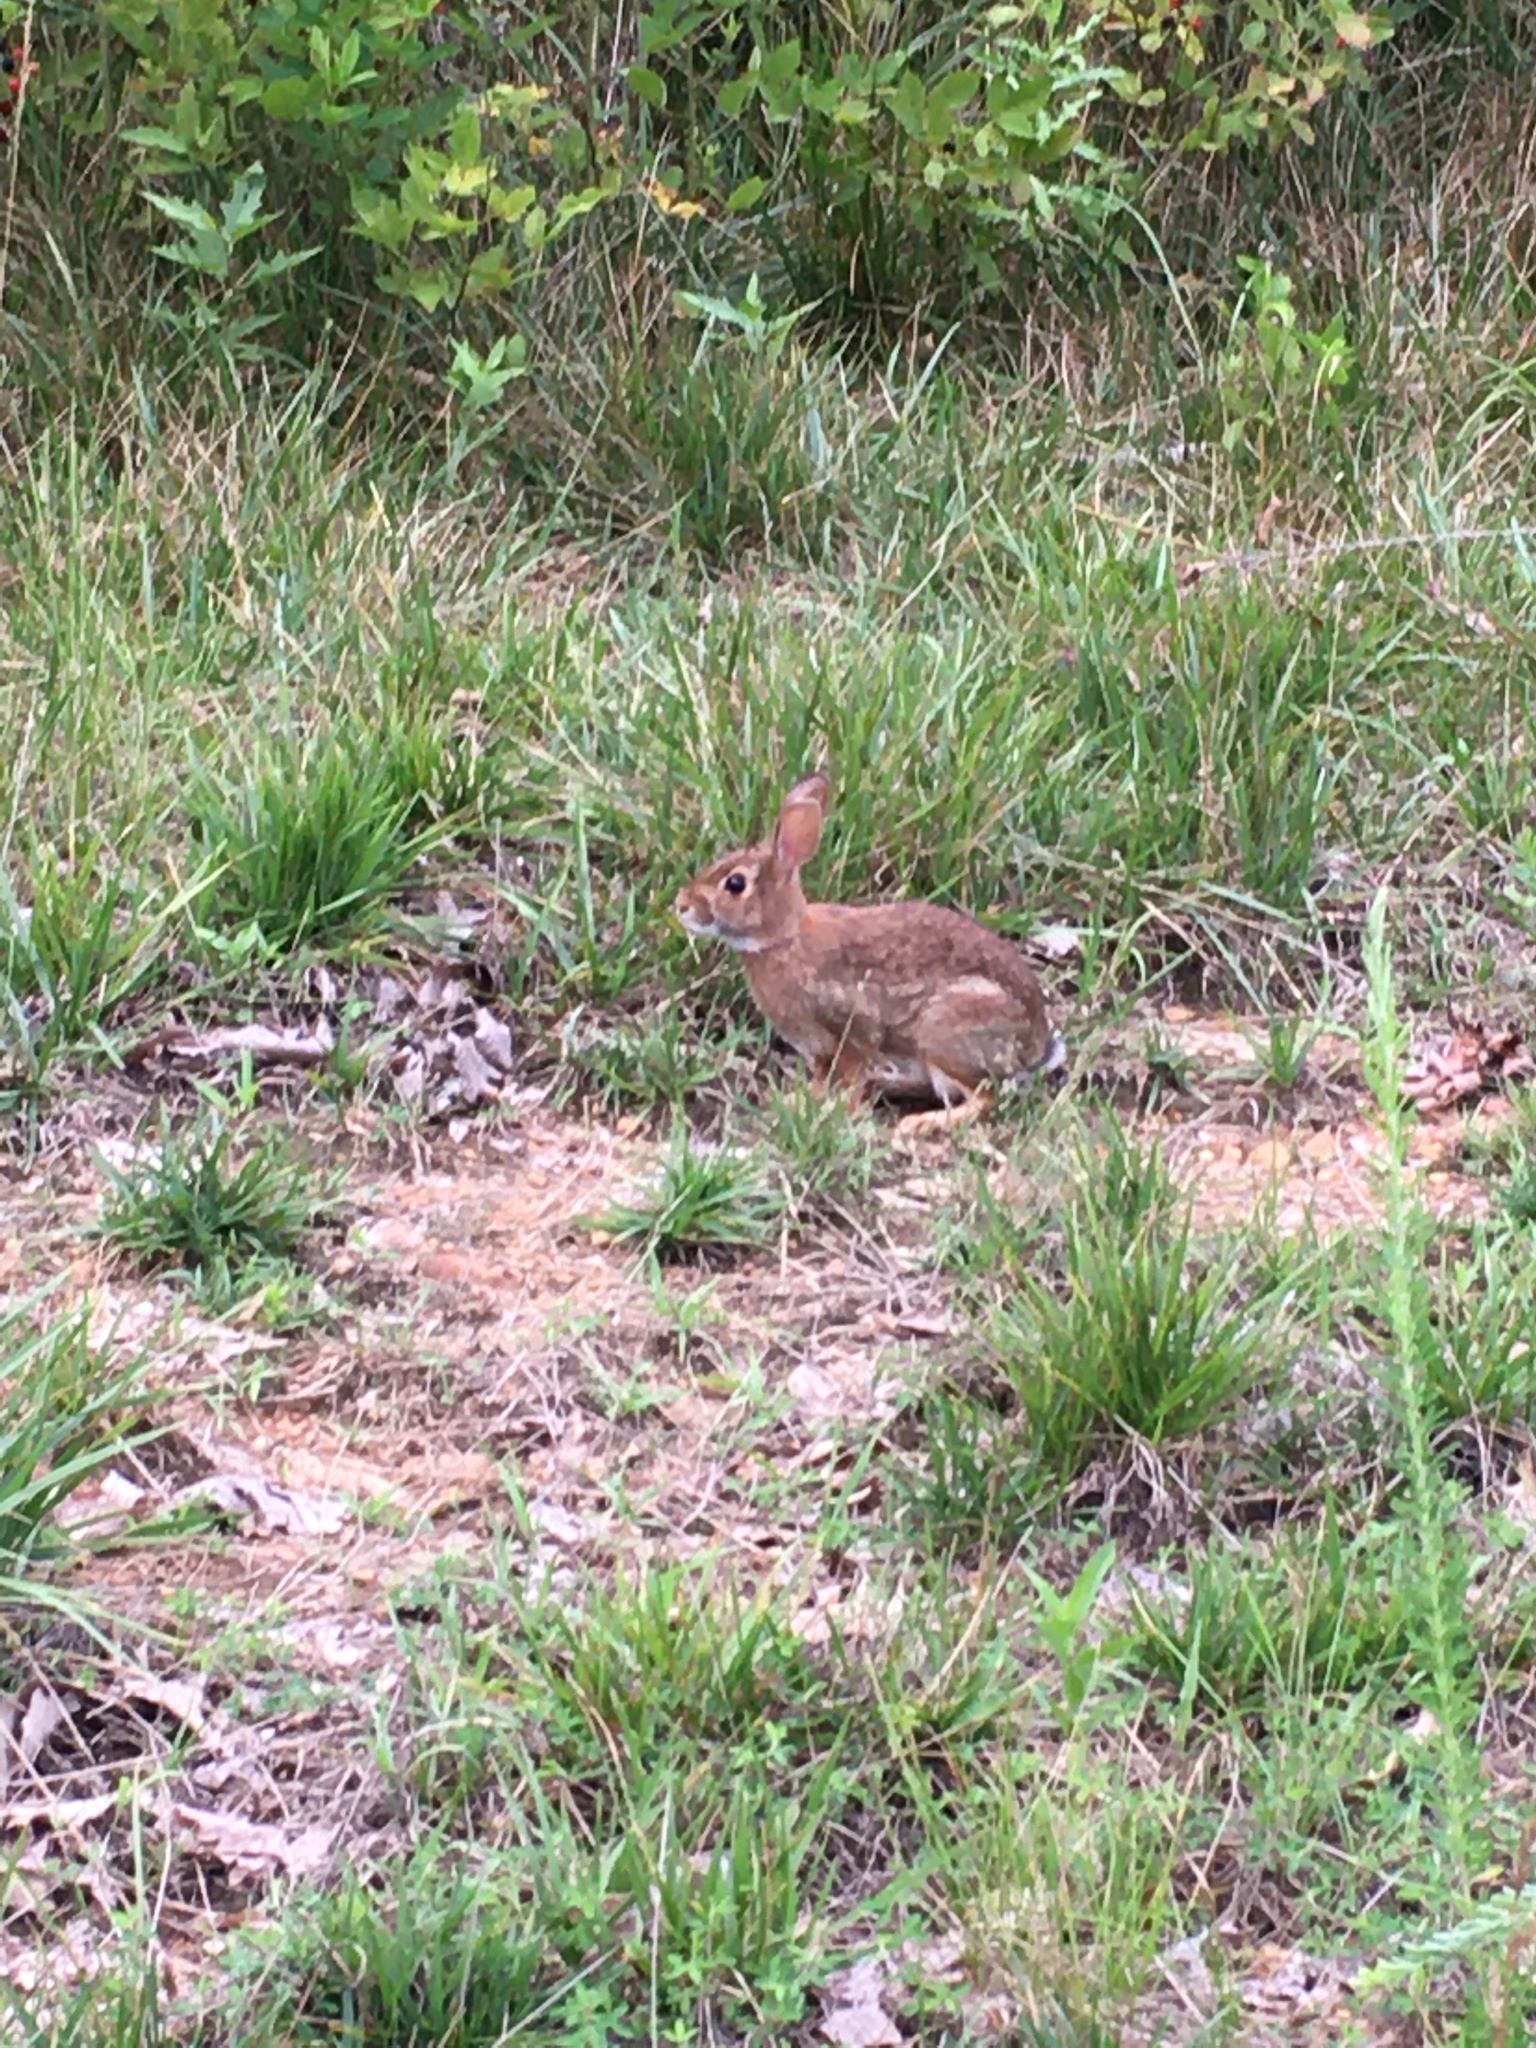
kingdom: Animalia
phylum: Chordata
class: Mammalia
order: Lagomorpha
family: Leporidae
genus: Sylvilagus
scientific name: Sylvilagus floridanus
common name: Eastern cottontail
